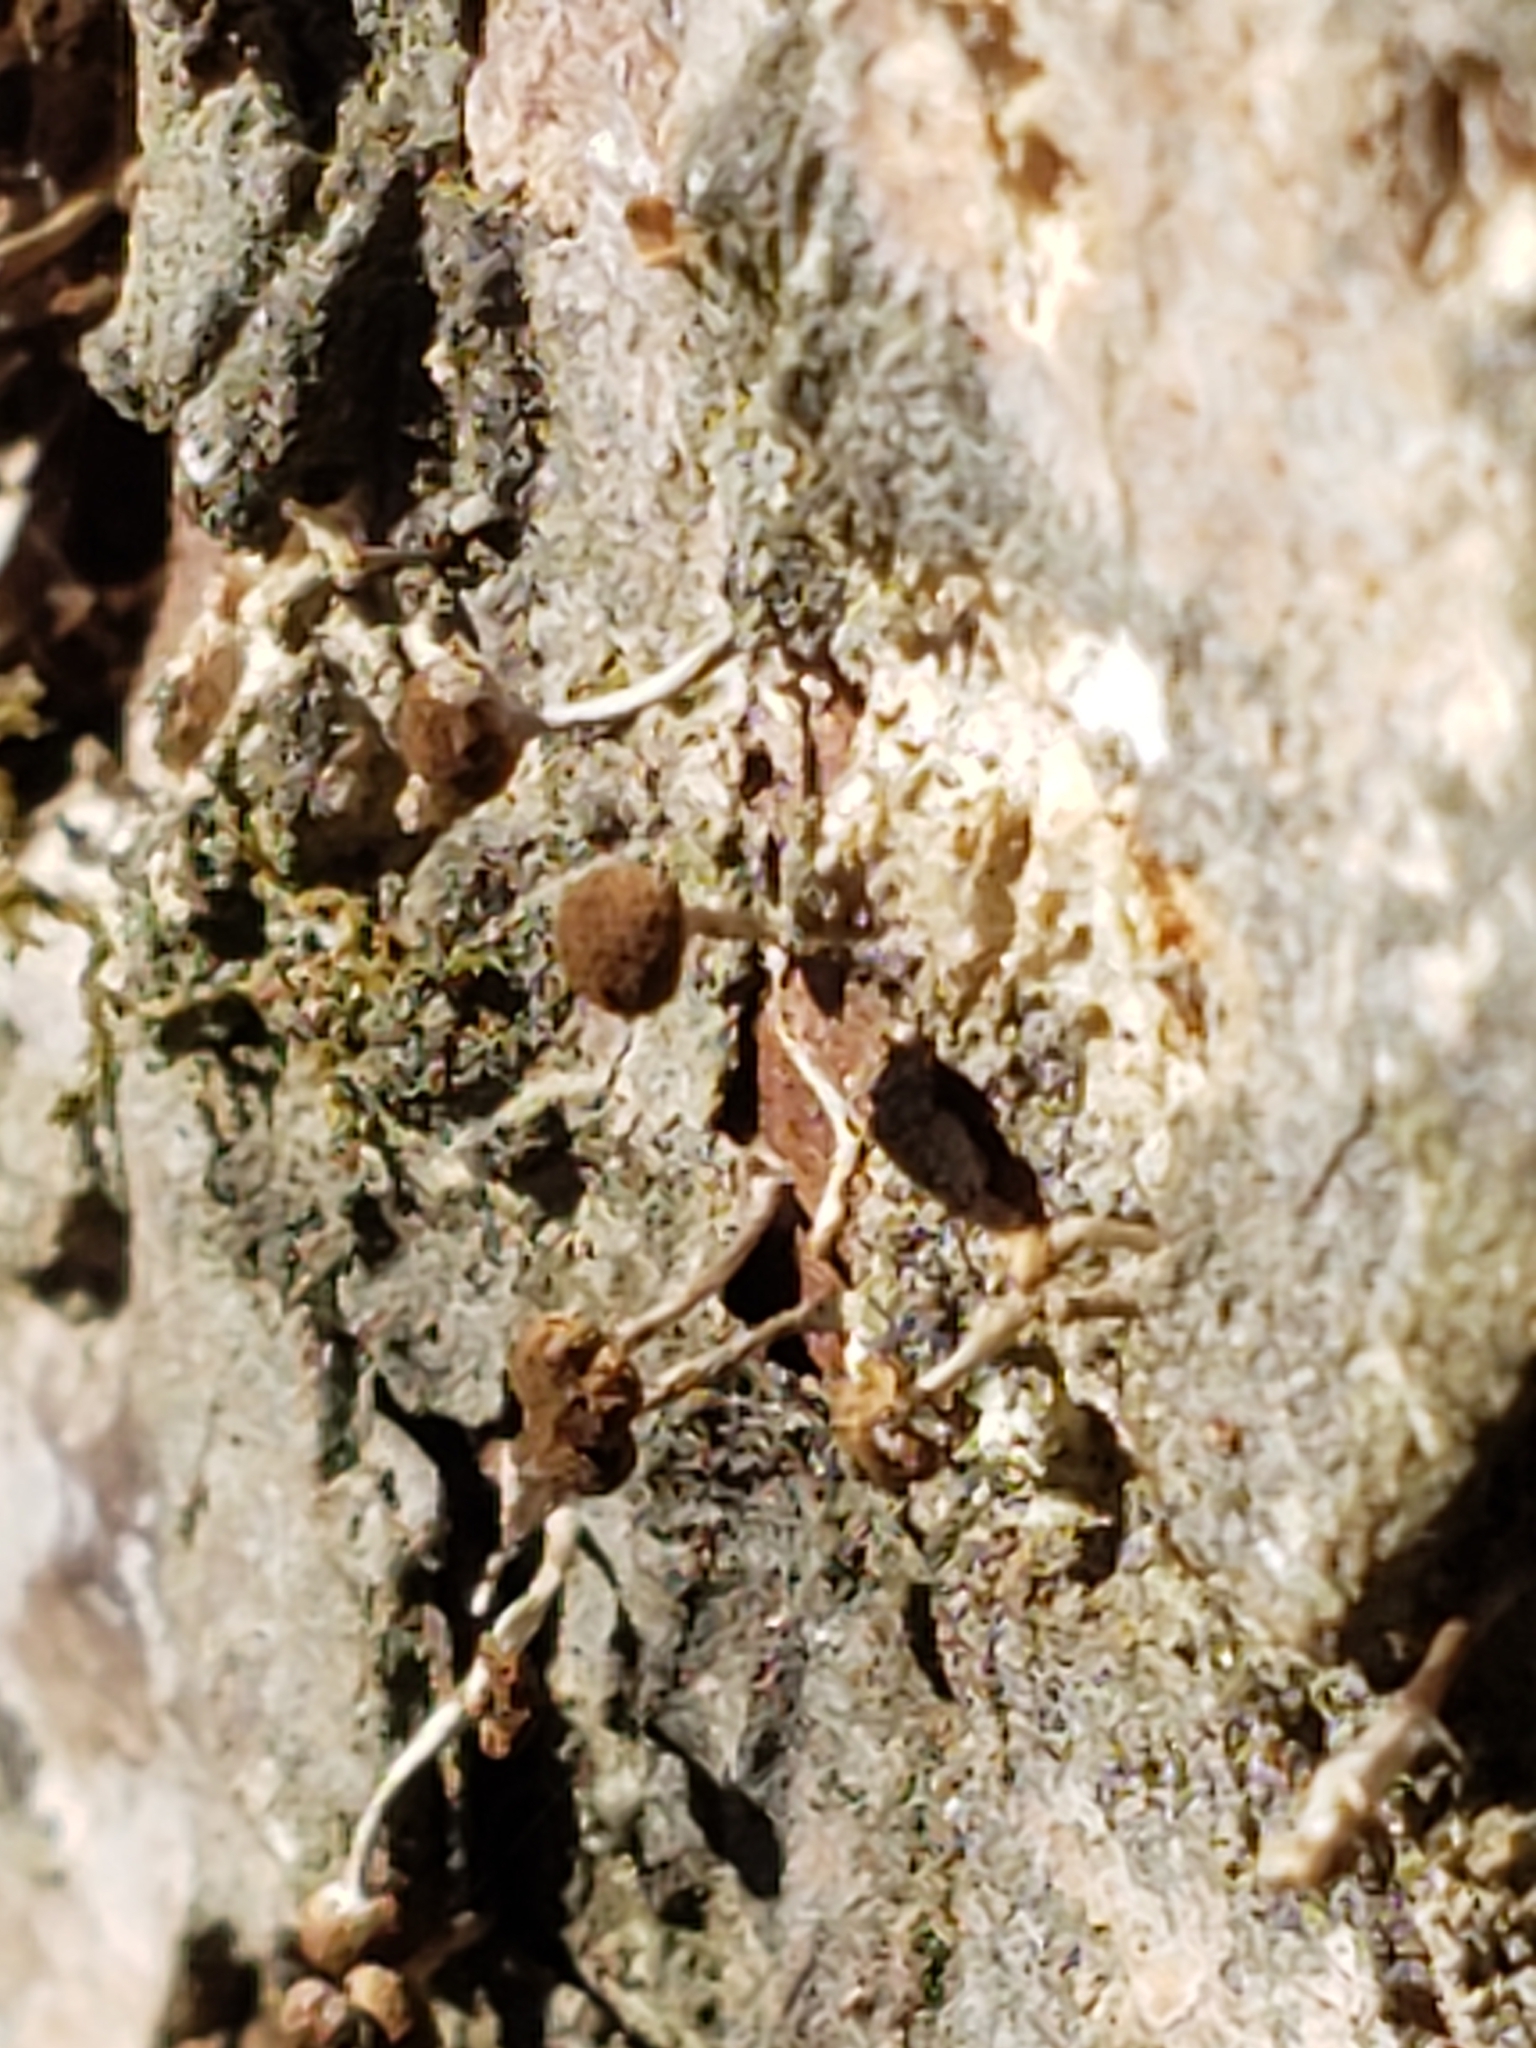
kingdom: Fungi
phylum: Basidiomycota
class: Atractiellomycetes
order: Atractiellales
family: Phleogenaceae
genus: Phleogena
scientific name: Phleogena faginea
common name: Fenugreek stalkball
